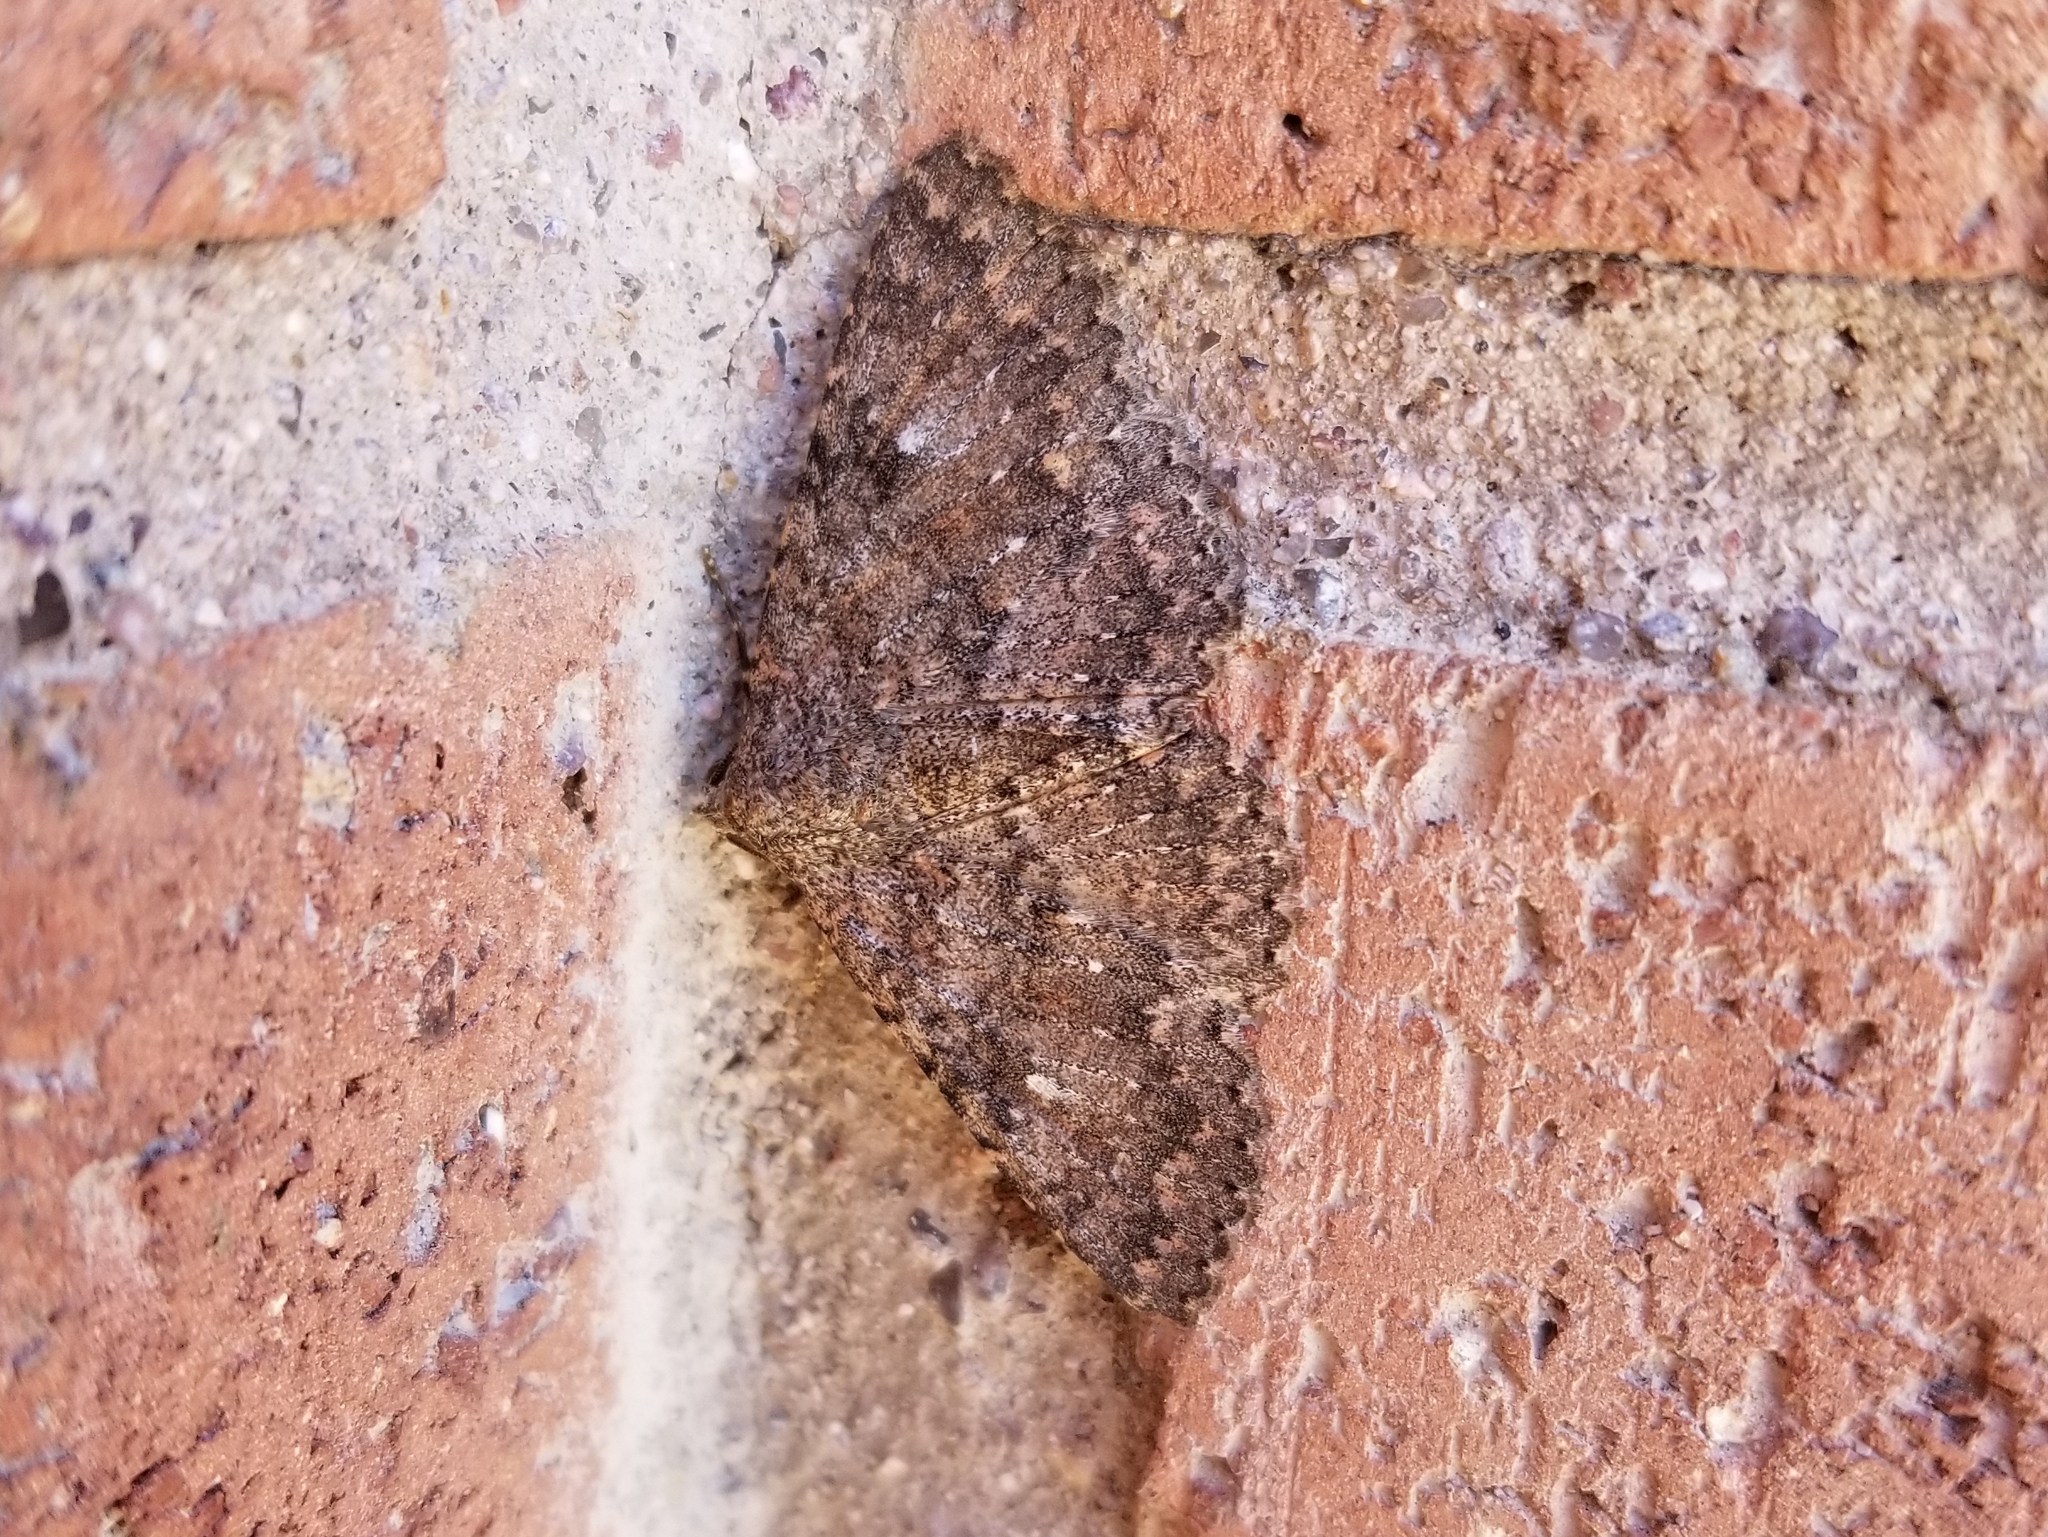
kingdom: Animalia
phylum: Arthropoda
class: Insecta
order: Lepidoptera
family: Erebidae
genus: Matigramma
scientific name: Matigramma emmilta
